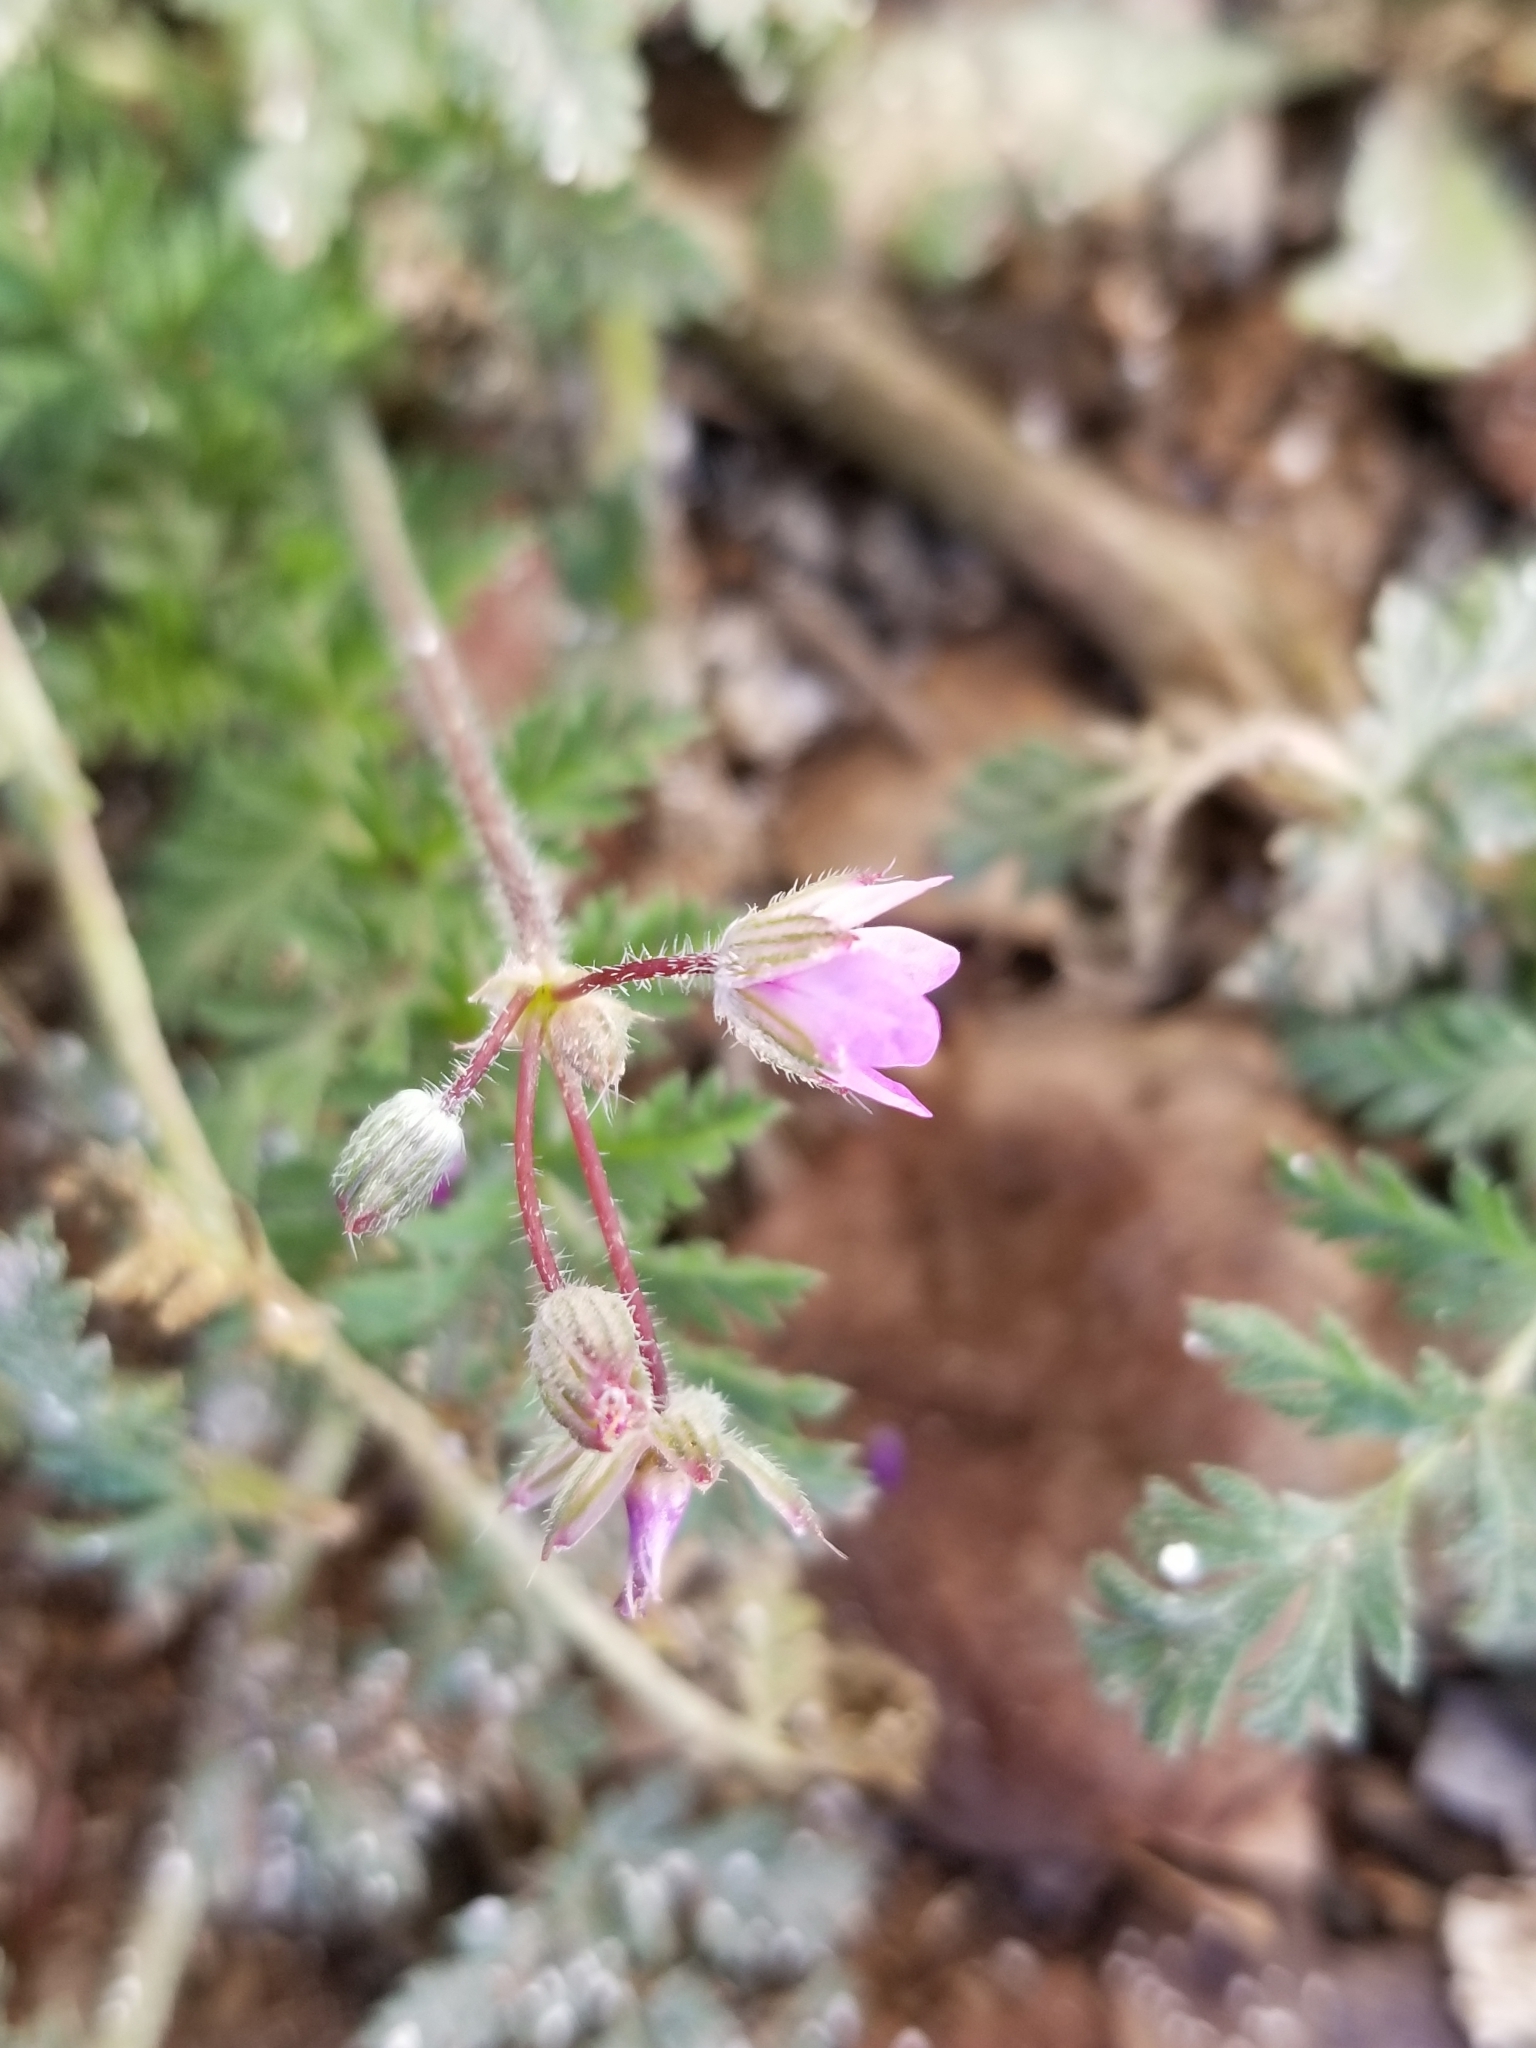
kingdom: Plantae
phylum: Tracheophyta
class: Magnoliopsida
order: Geraniales
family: Geraniaceae
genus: Erodium
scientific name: Erodium cicutarium
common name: Common stork's-bill
